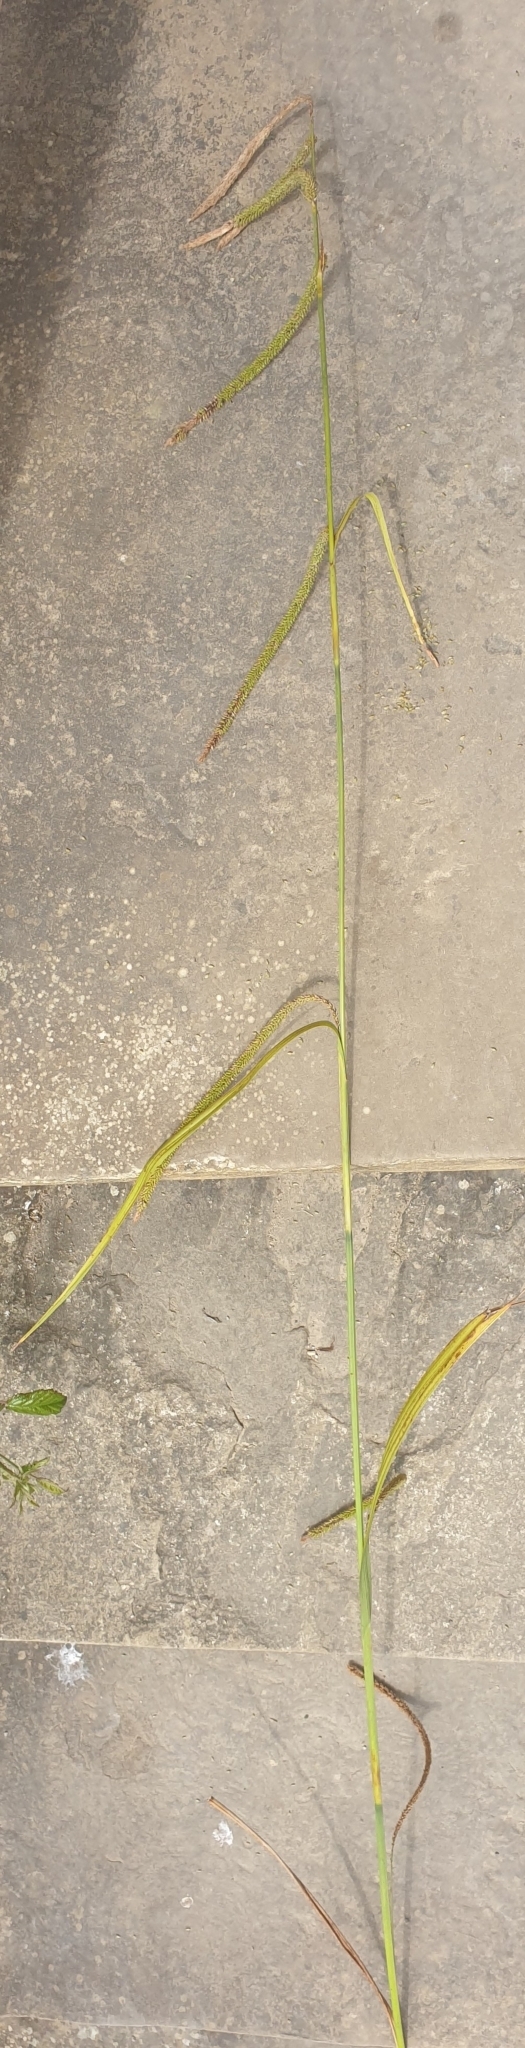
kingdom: Plantae
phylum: Tracheophyta
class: Liliopsida
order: Poales
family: Cyperaceae
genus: Carex
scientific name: Carex pendula
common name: Pendulous sedge
